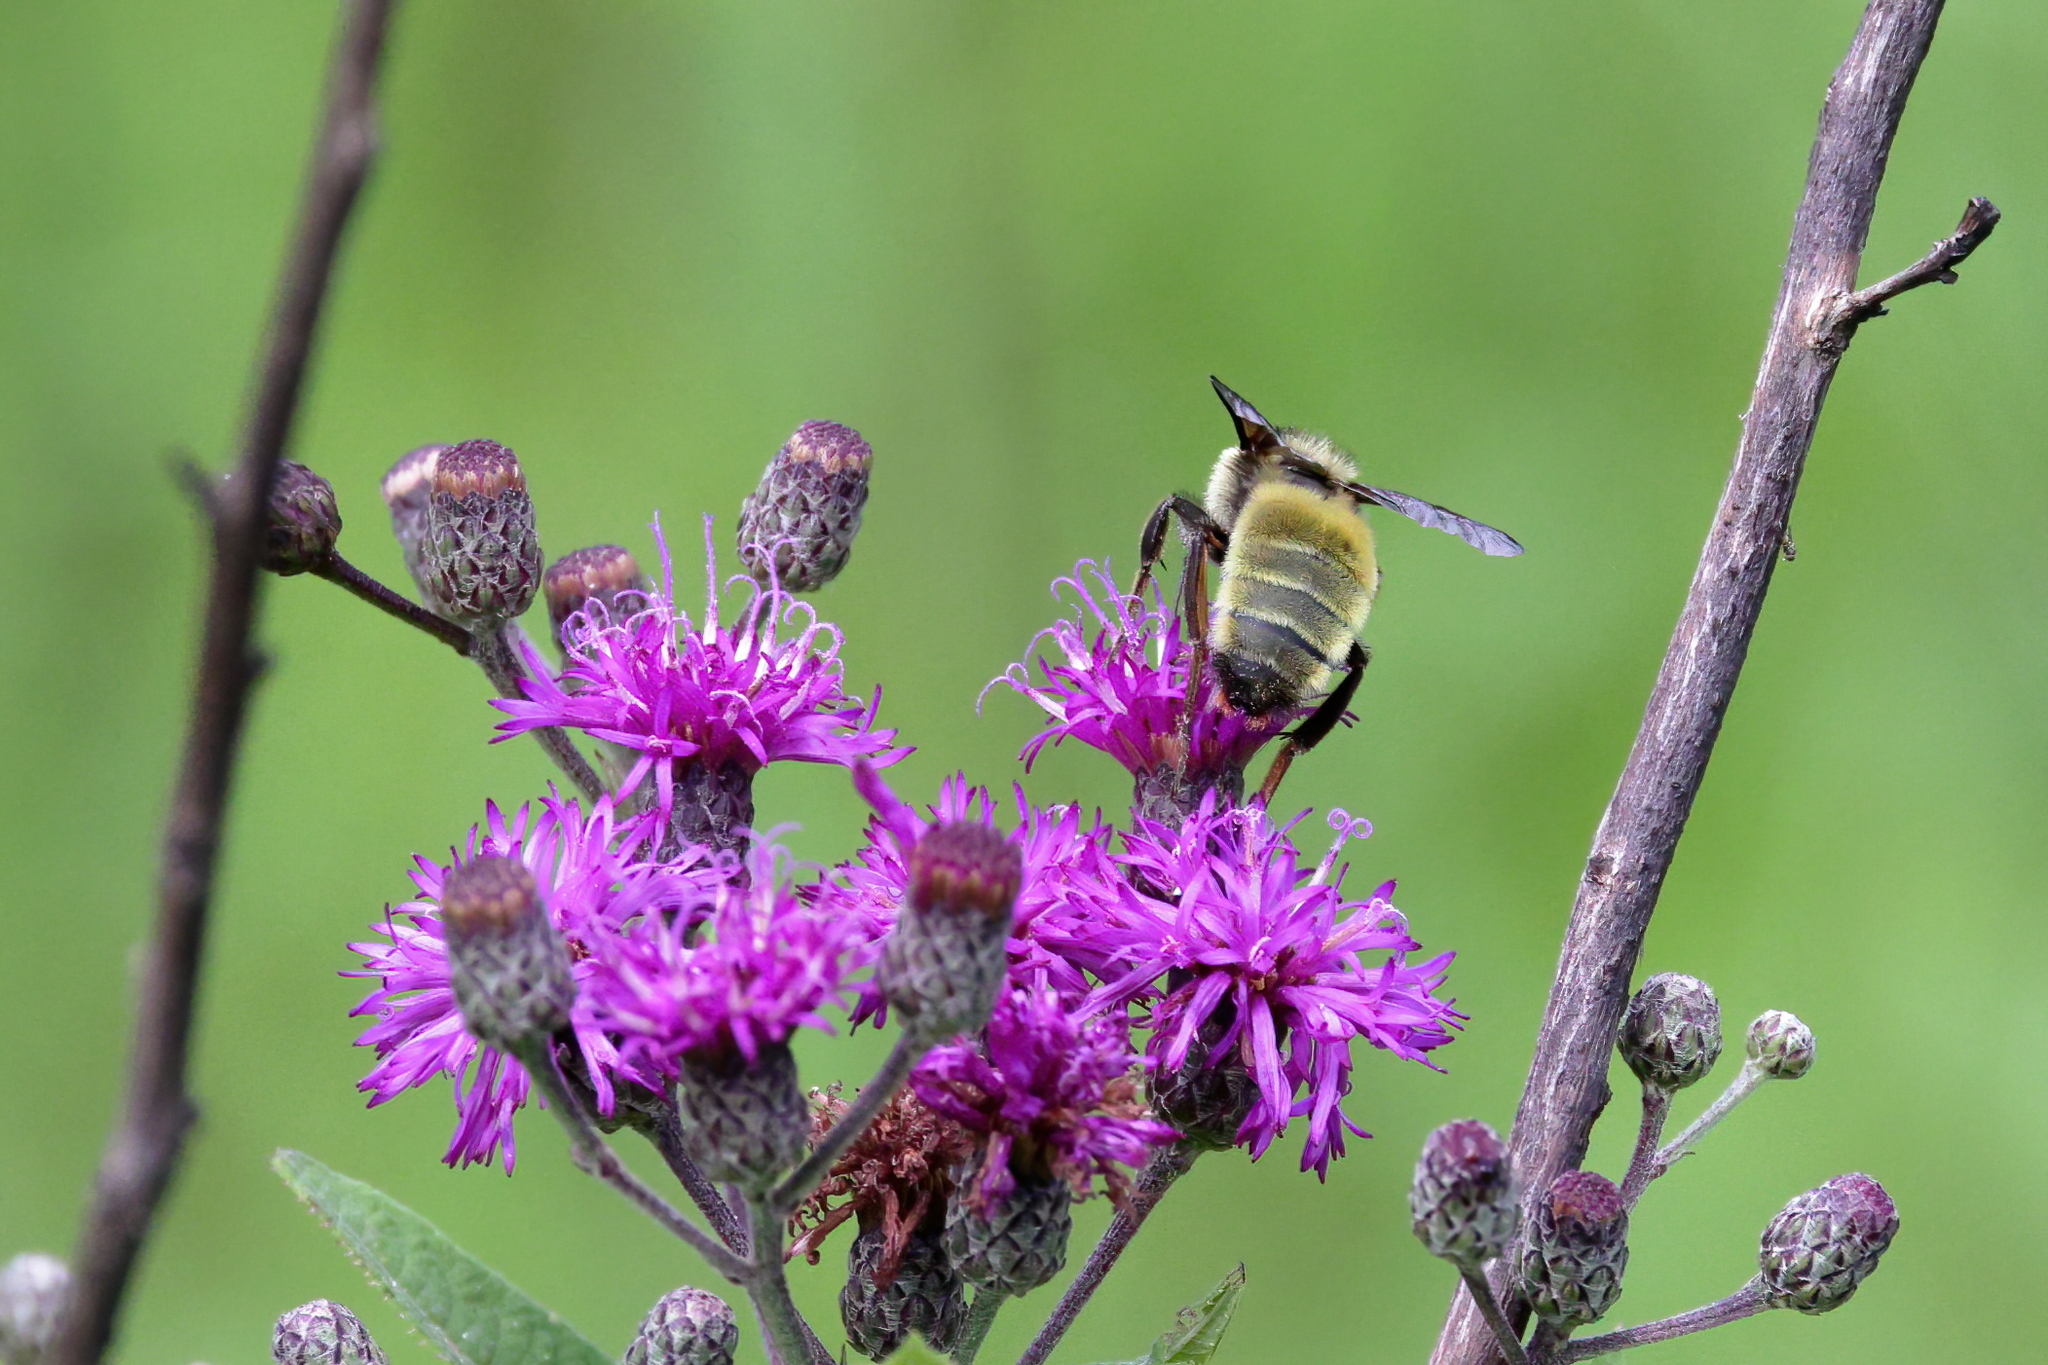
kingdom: Animalia
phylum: Arthropoda
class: Insecta
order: Hymenoptera
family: Apidae
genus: Bombus
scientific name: Bombus pensylvanicus
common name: Bumble bee
